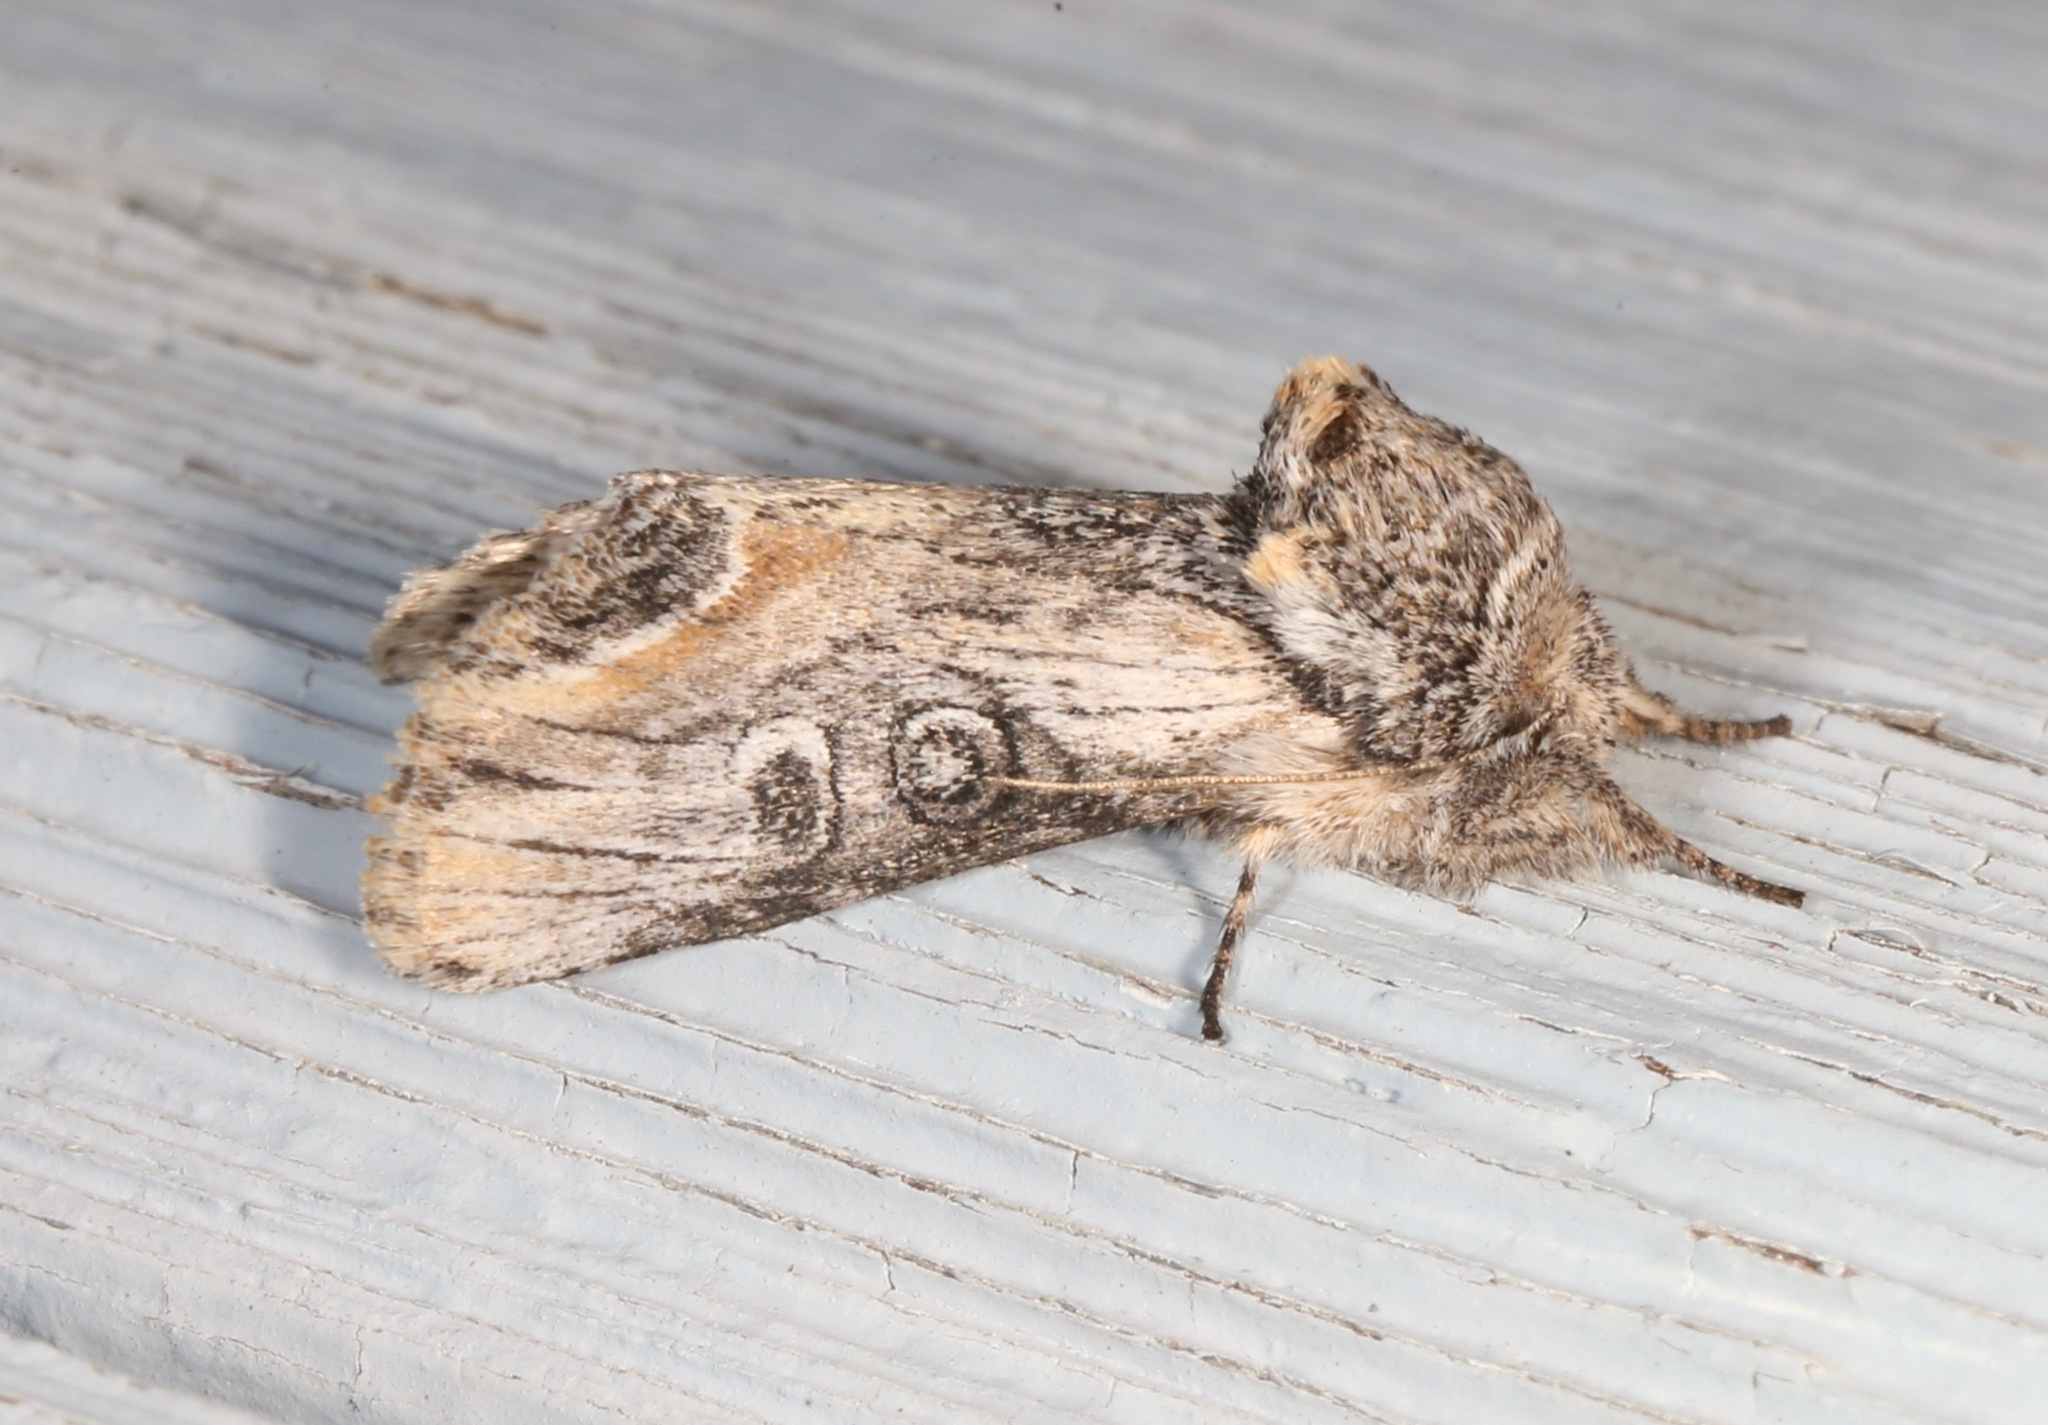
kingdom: Animalia
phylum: Arthropoda
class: Insecta
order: Lepidoptera
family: Noctuidae
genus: Walterella
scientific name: Walterella ocellata
